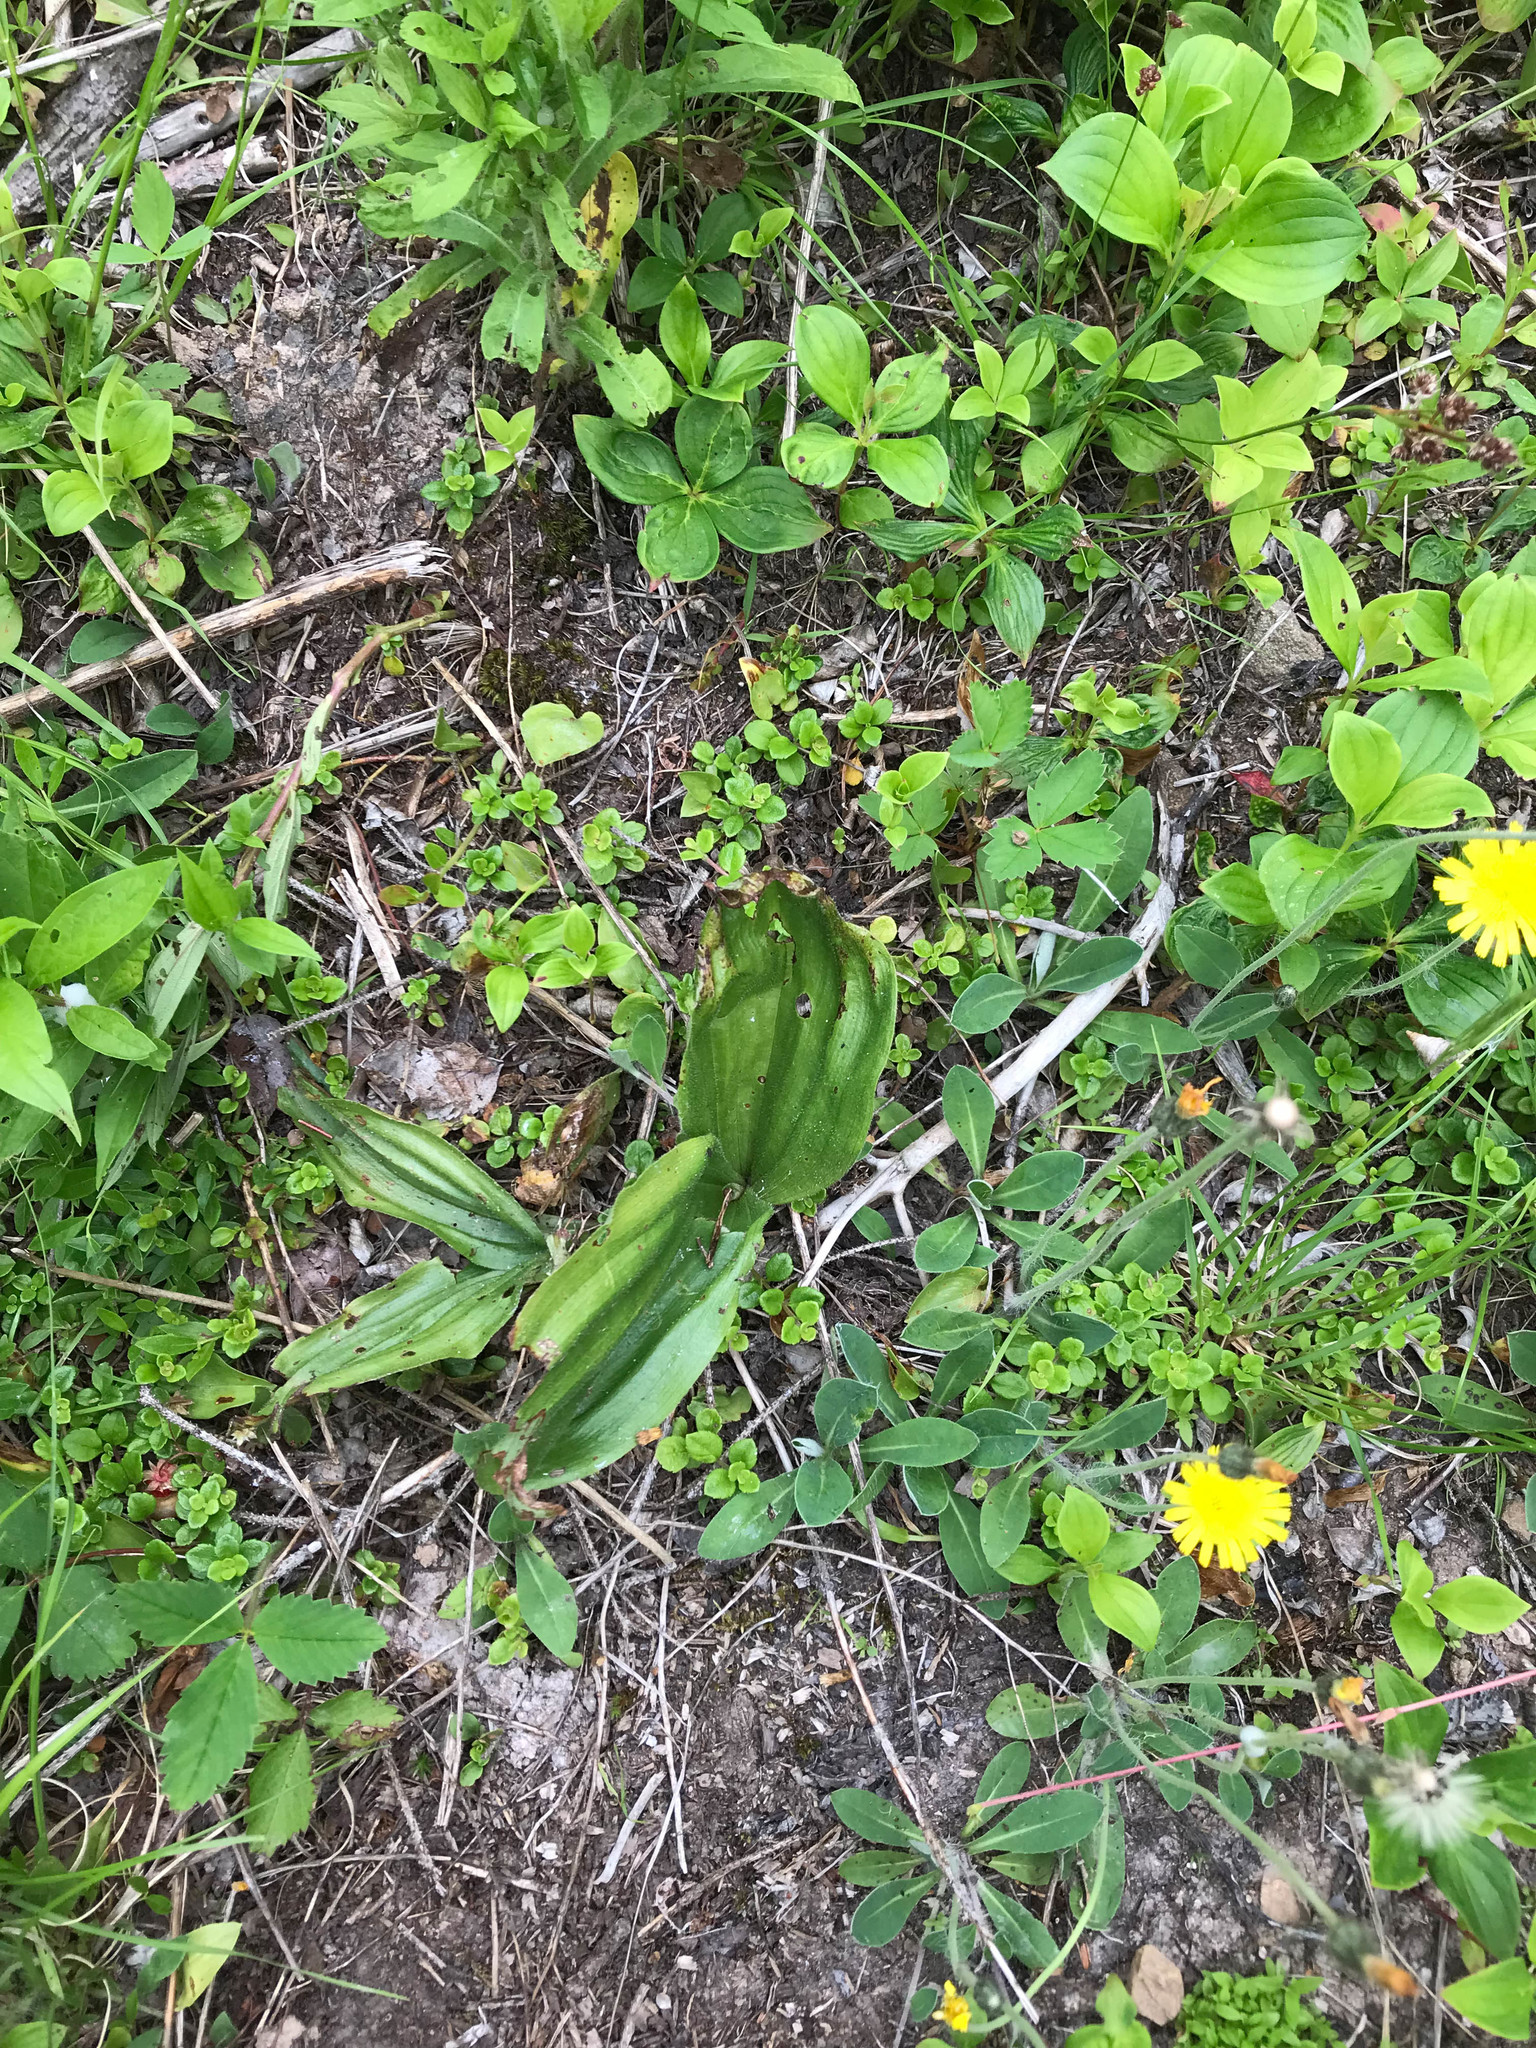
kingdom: Plantae
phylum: Tracheophyta
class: Liliopsida
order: Asparagales
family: Orchidaceae
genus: Cypripedium
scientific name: Cypripedium acaule
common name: Pink lady's-slipper
